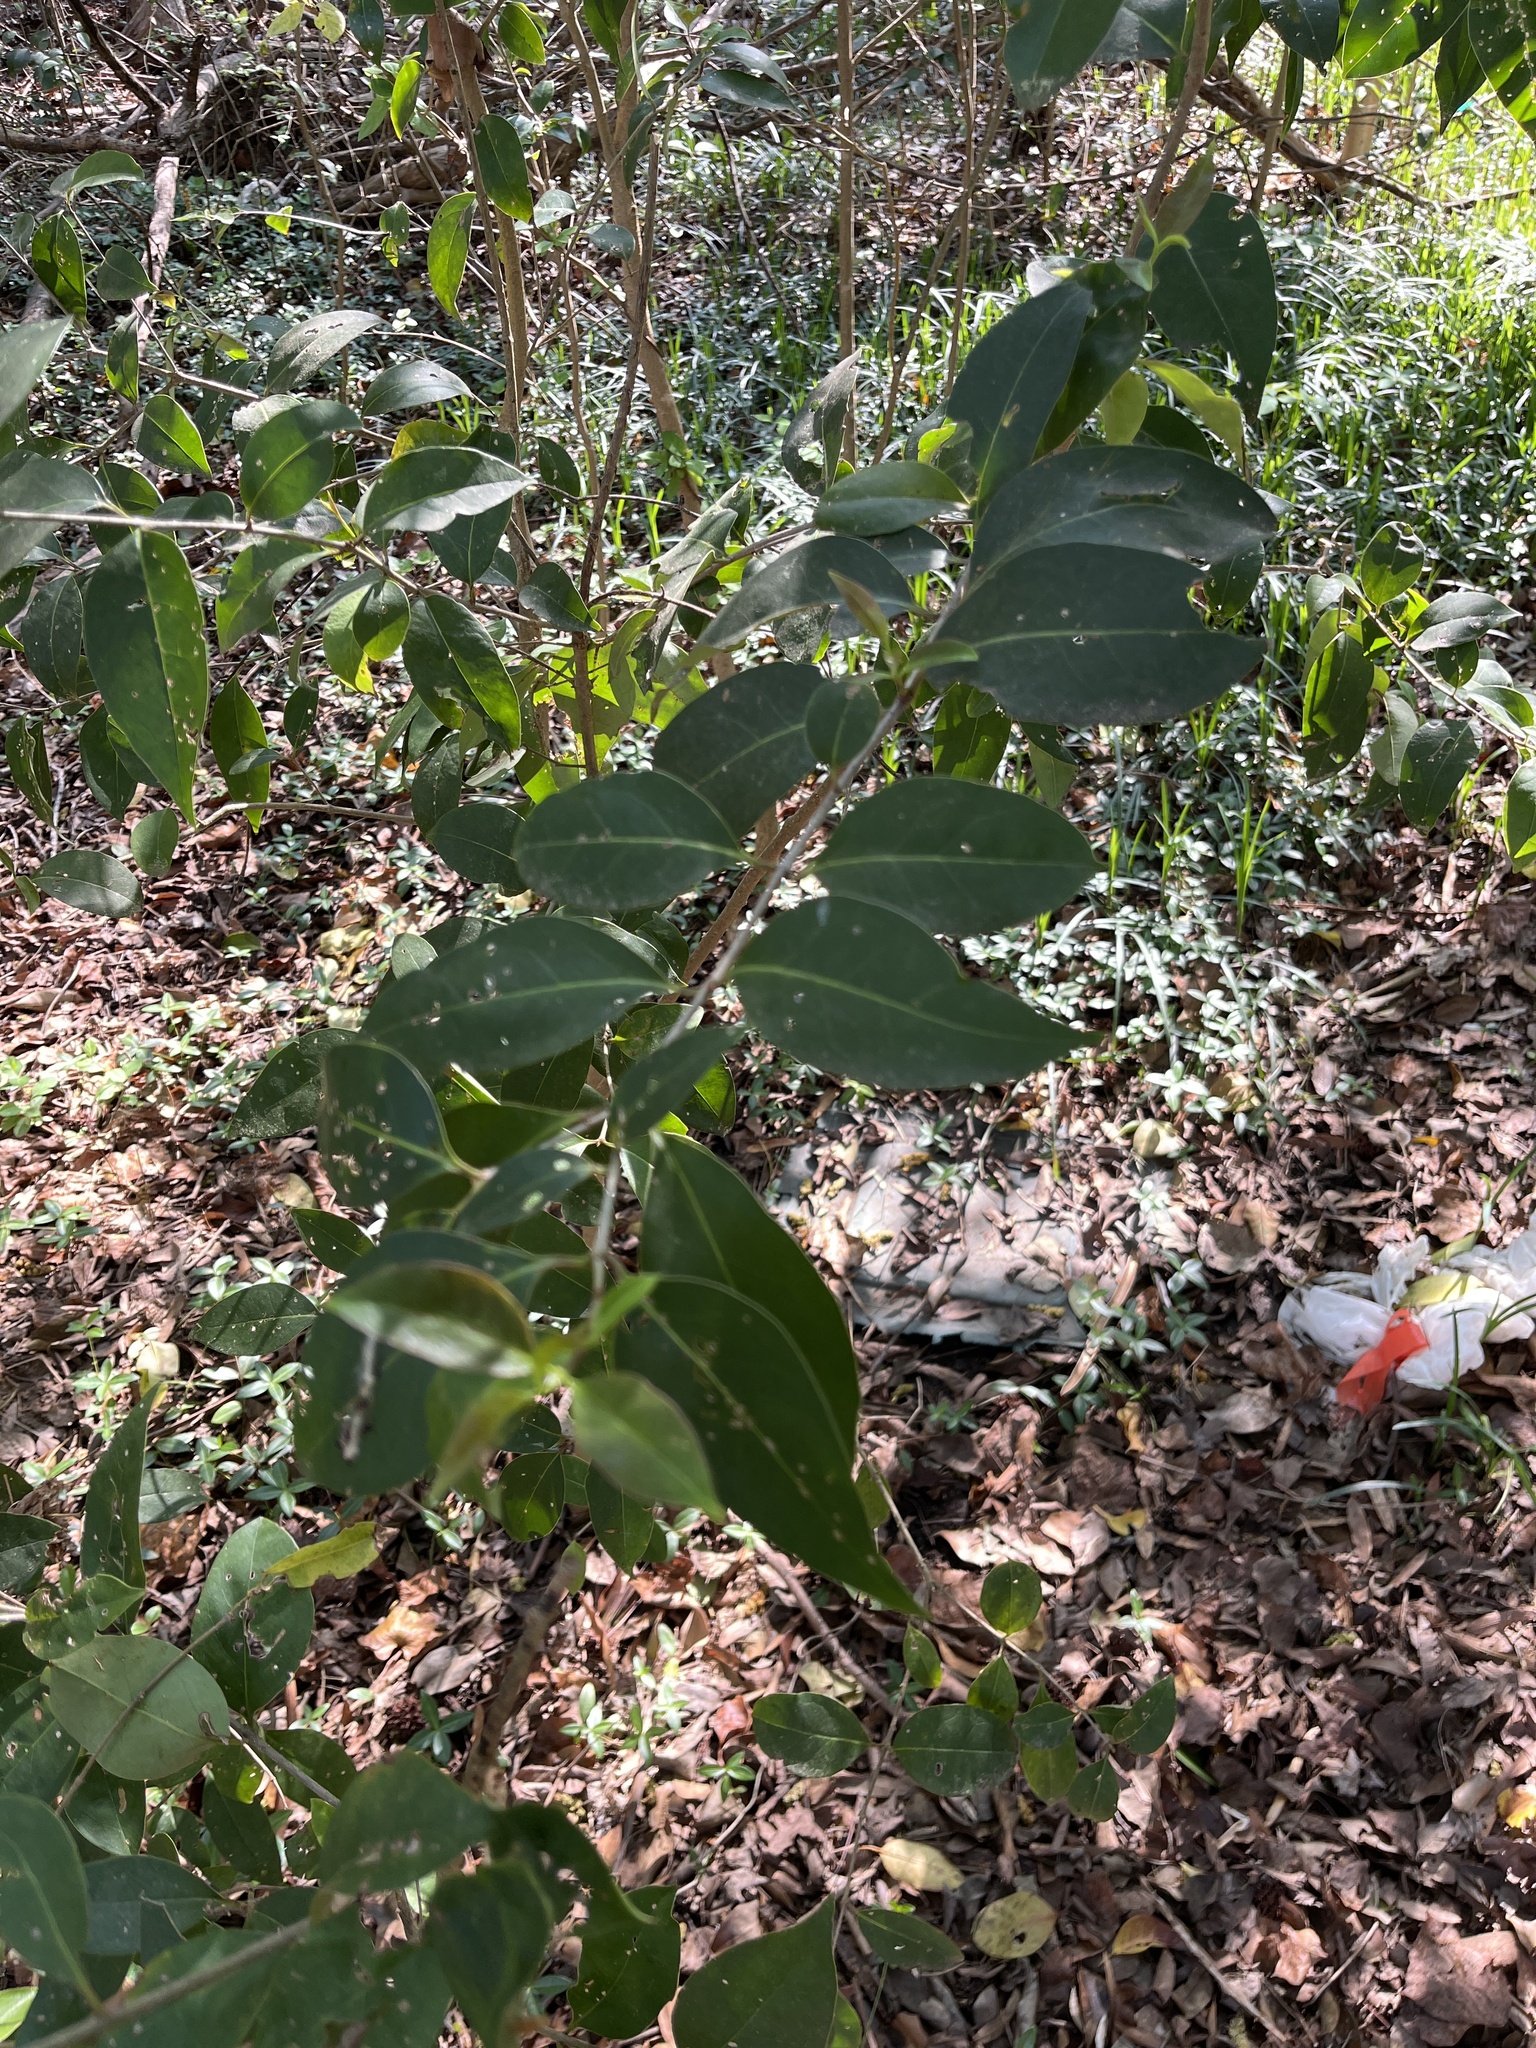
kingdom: Plantae
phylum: Tracheophyta
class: Magnoliopsida
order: Lamiales
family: Oleaceae
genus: Ligustrum
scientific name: Ligustrum lucidum
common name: Glossy privet
